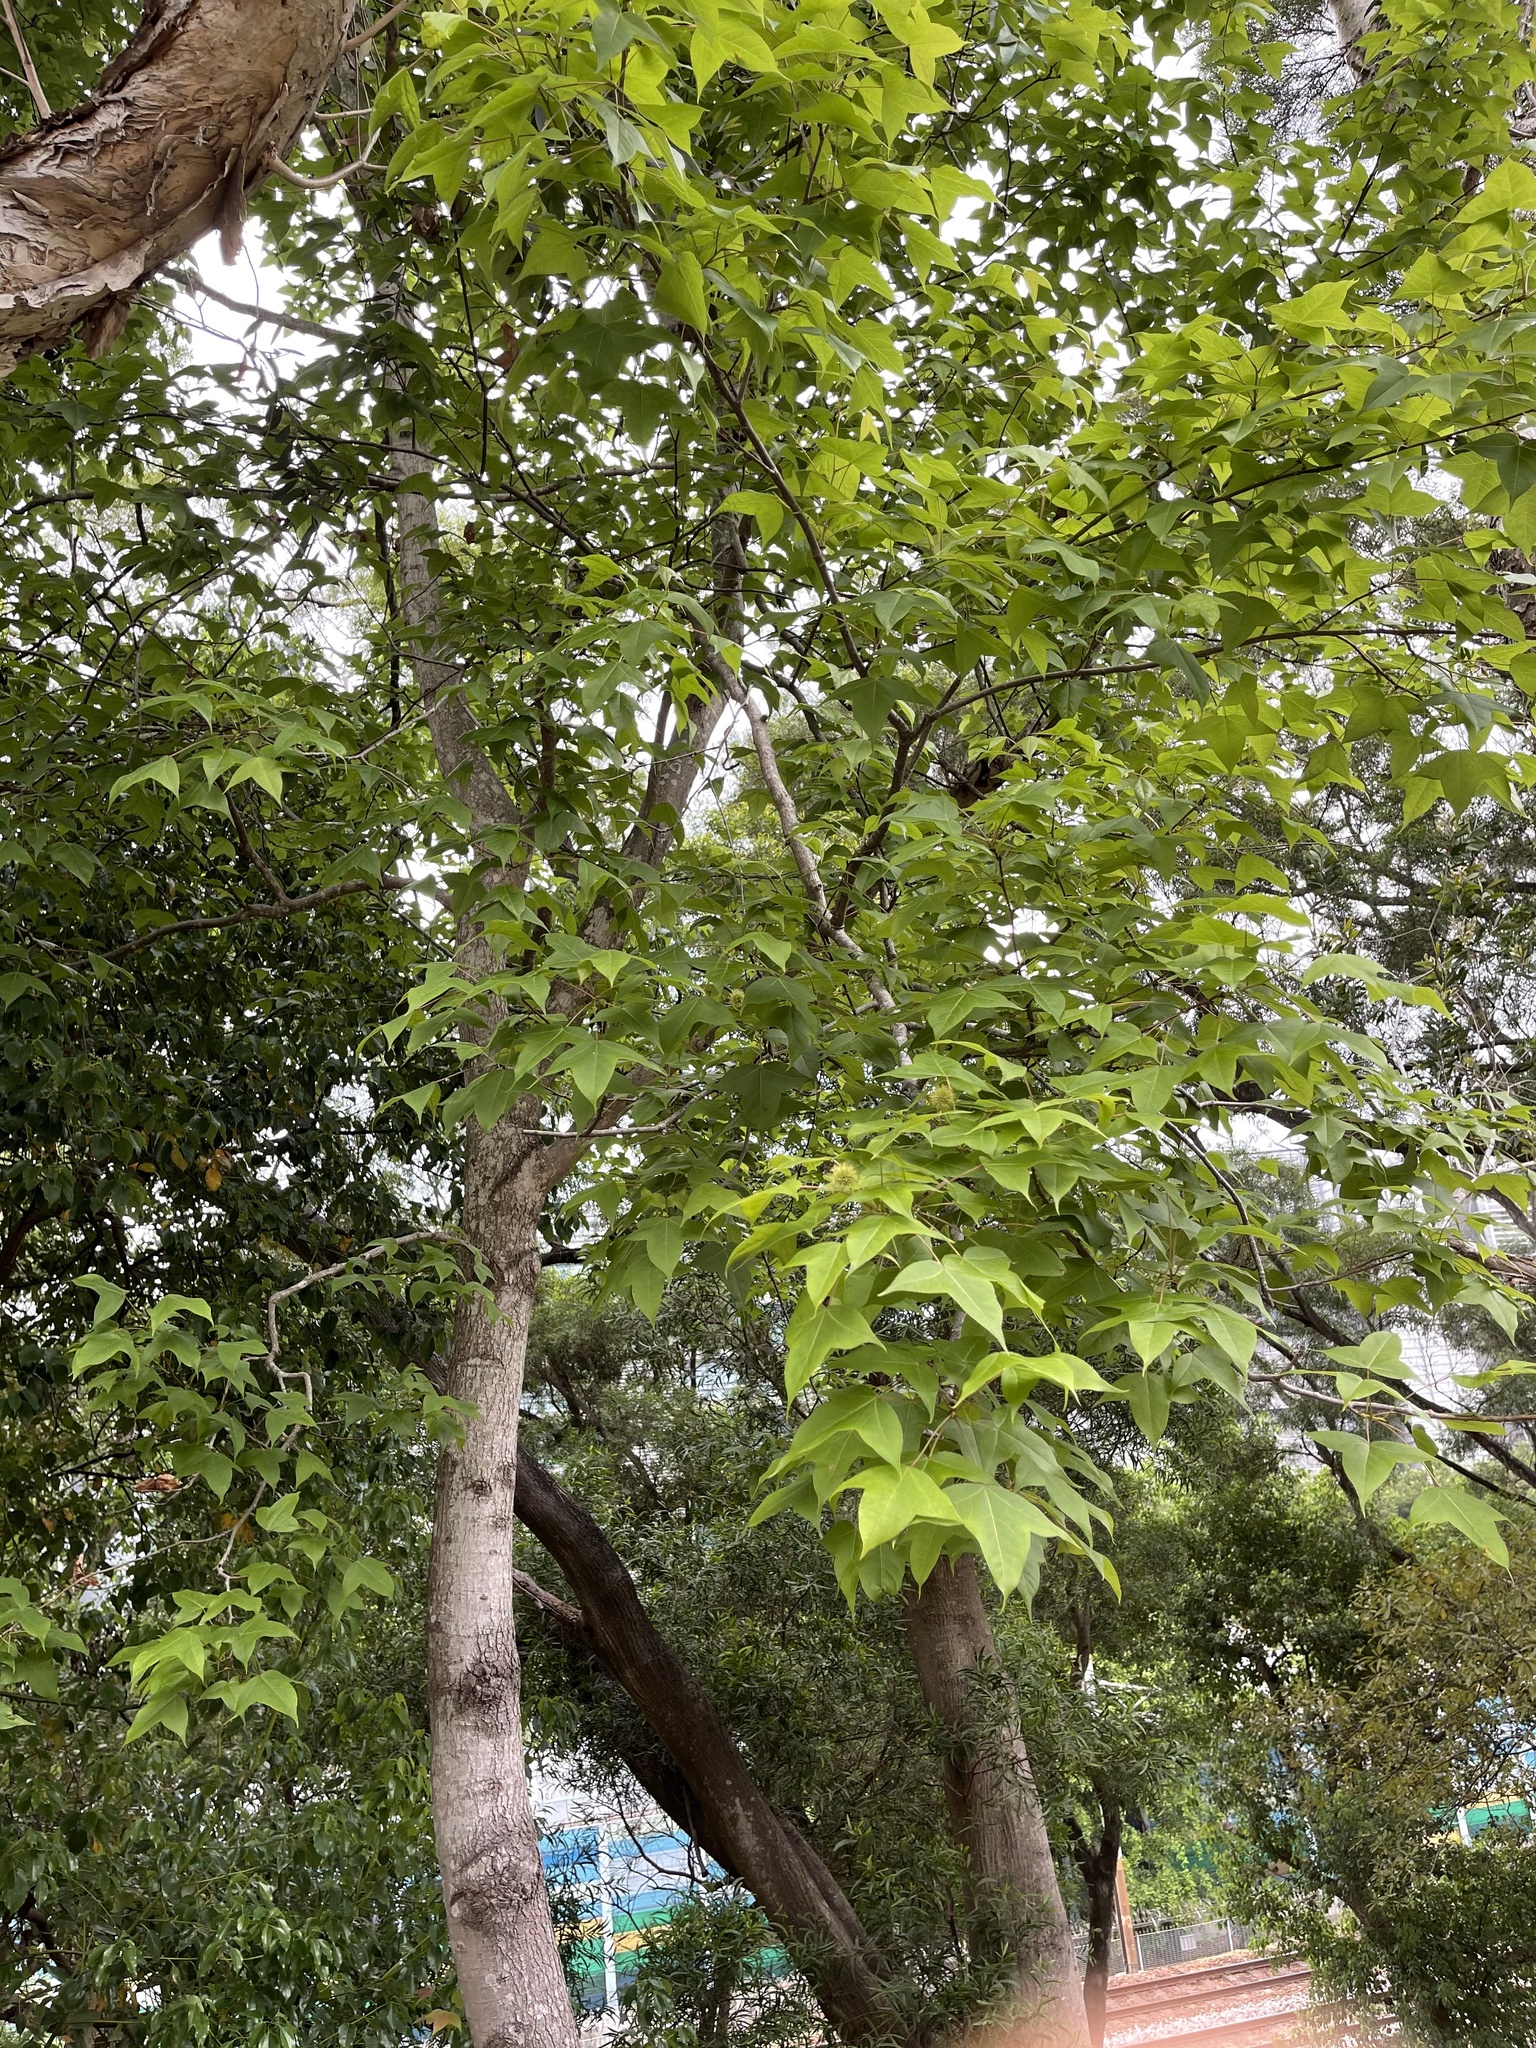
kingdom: Plantae
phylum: Tracheophyta
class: Magnoliopsida
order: Saxifragales
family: Altingiaceae
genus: Liquidambar
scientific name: Liquidambar formosana
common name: Chinese sweet gum
